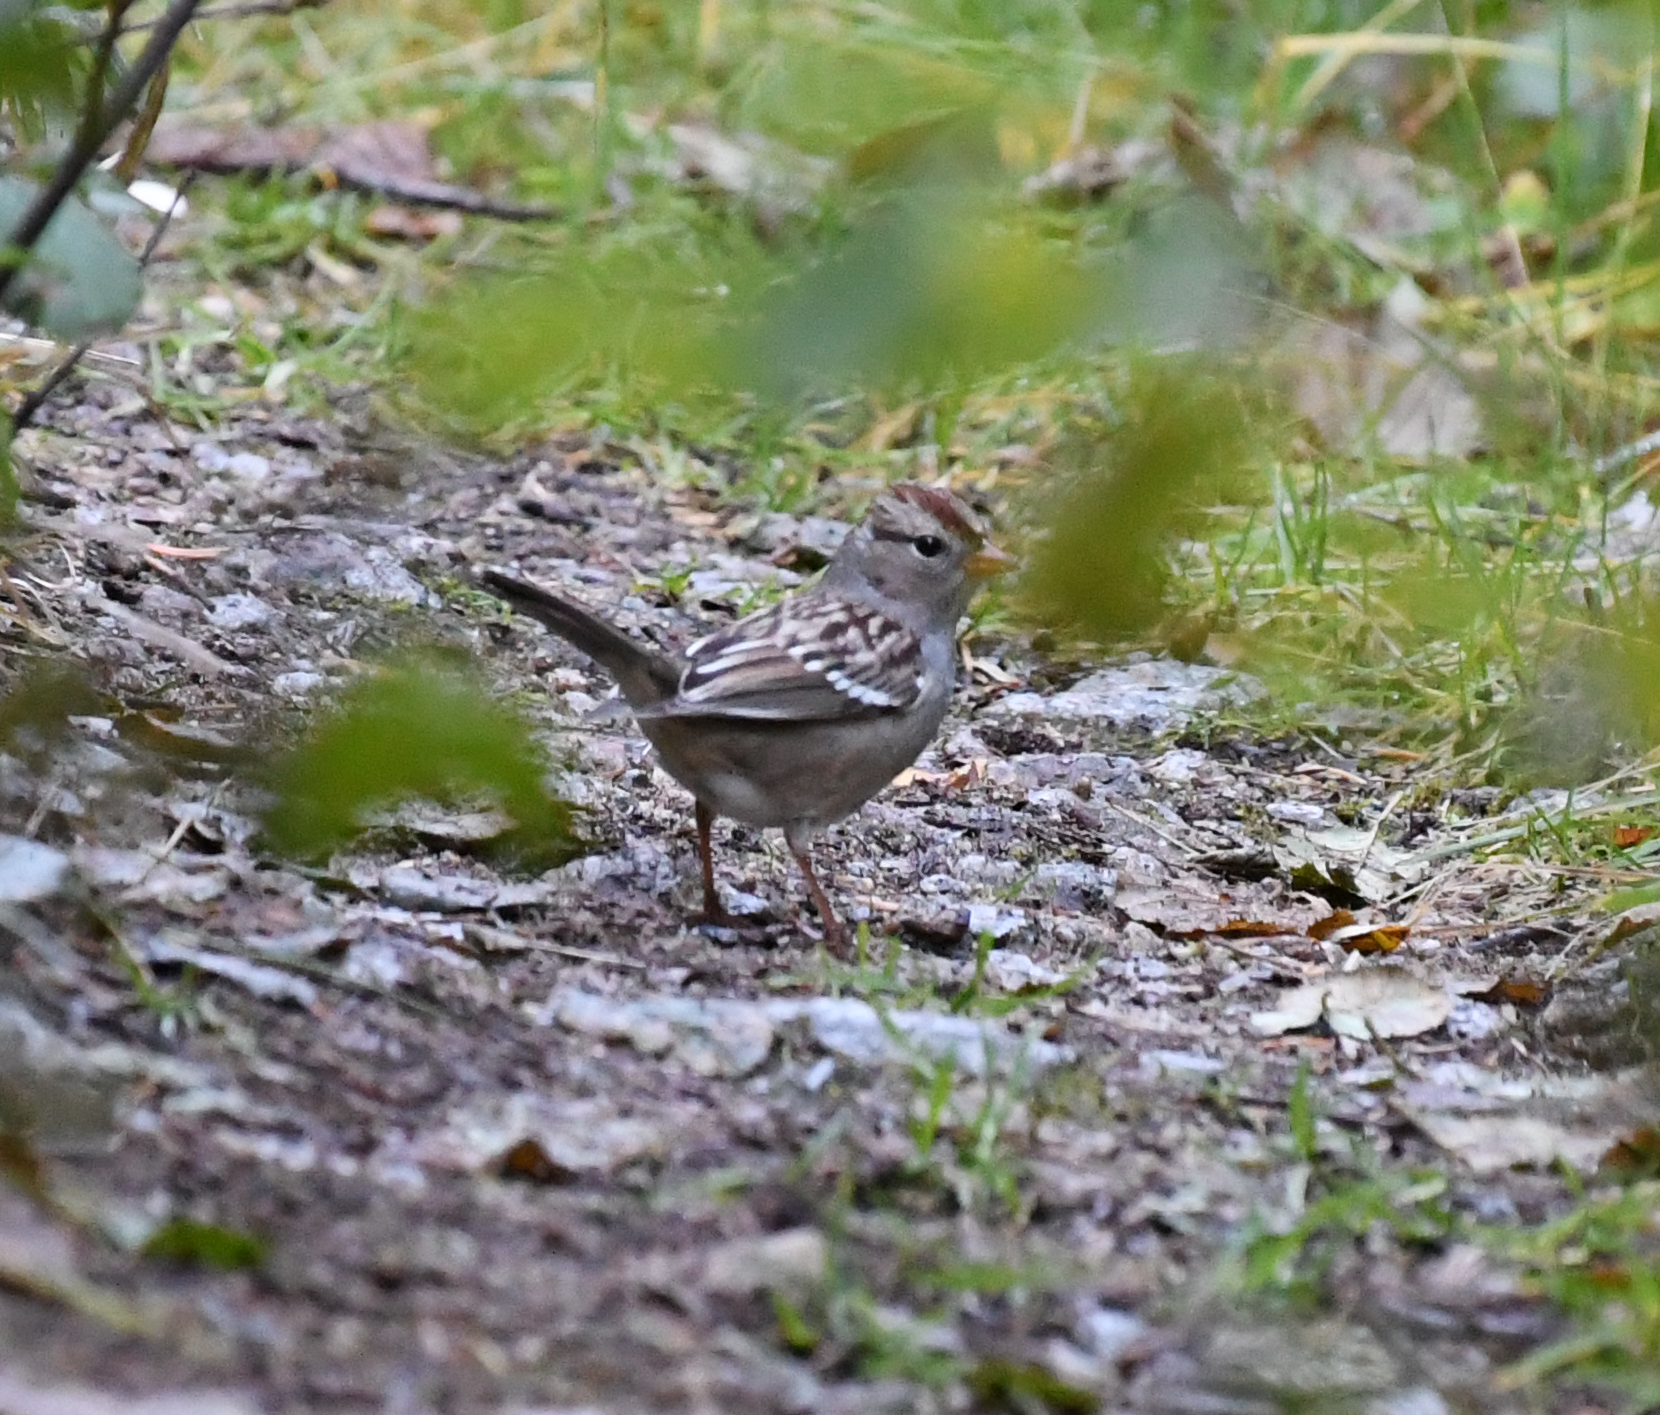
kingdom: Animalia
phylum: Chordata
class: Aves
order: Passeriformes
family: Passerellidae
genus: Zonotrichia
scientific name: Zonotrichia leucophrys
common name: White-crowned sparrow
